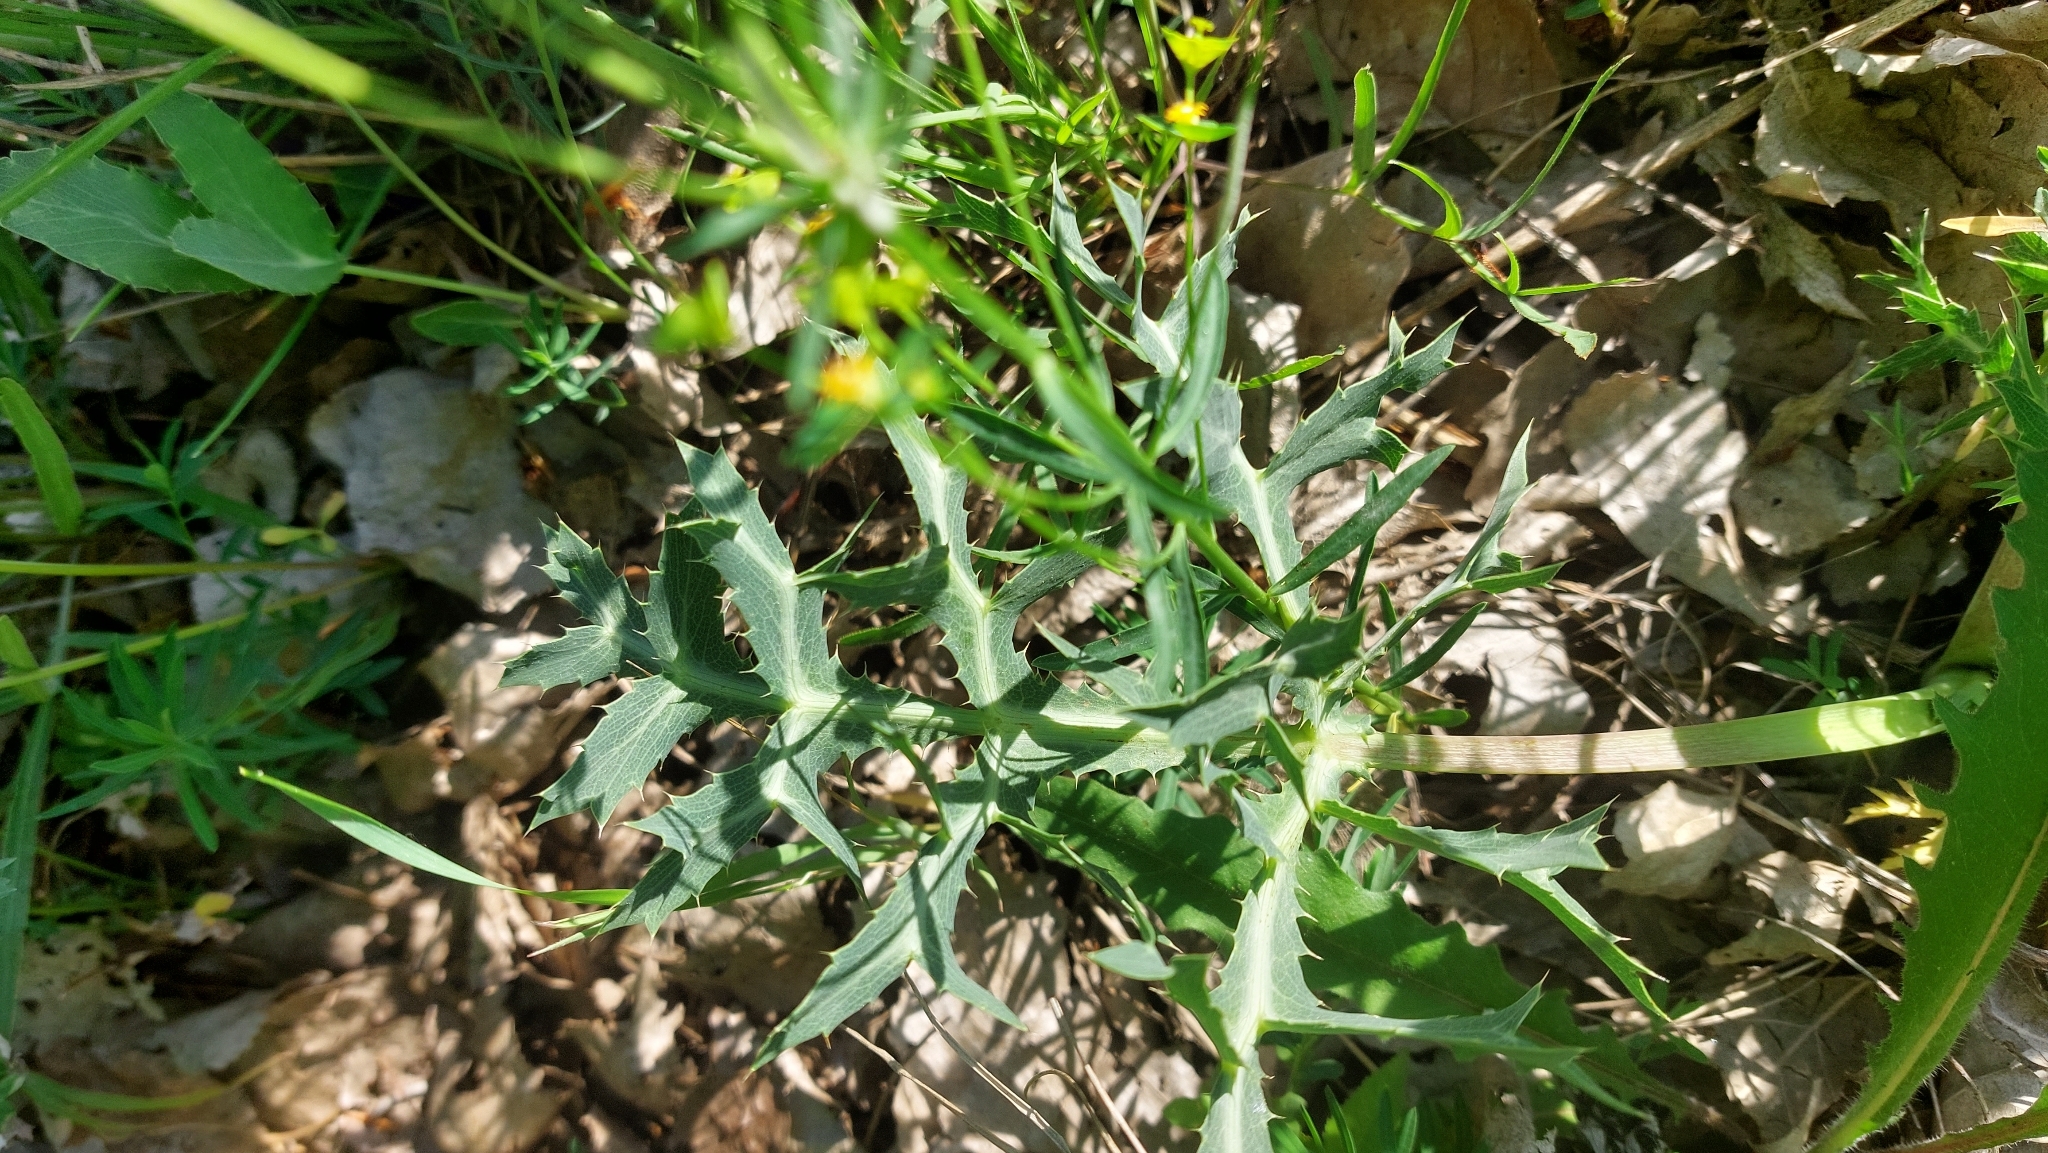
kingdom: Plantae
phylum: Tracheophyta
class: Magnoliopsida
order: Apiales
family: Apiaceae
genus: Eryngium
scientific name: Eryngium campestre
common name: Field eryngo
